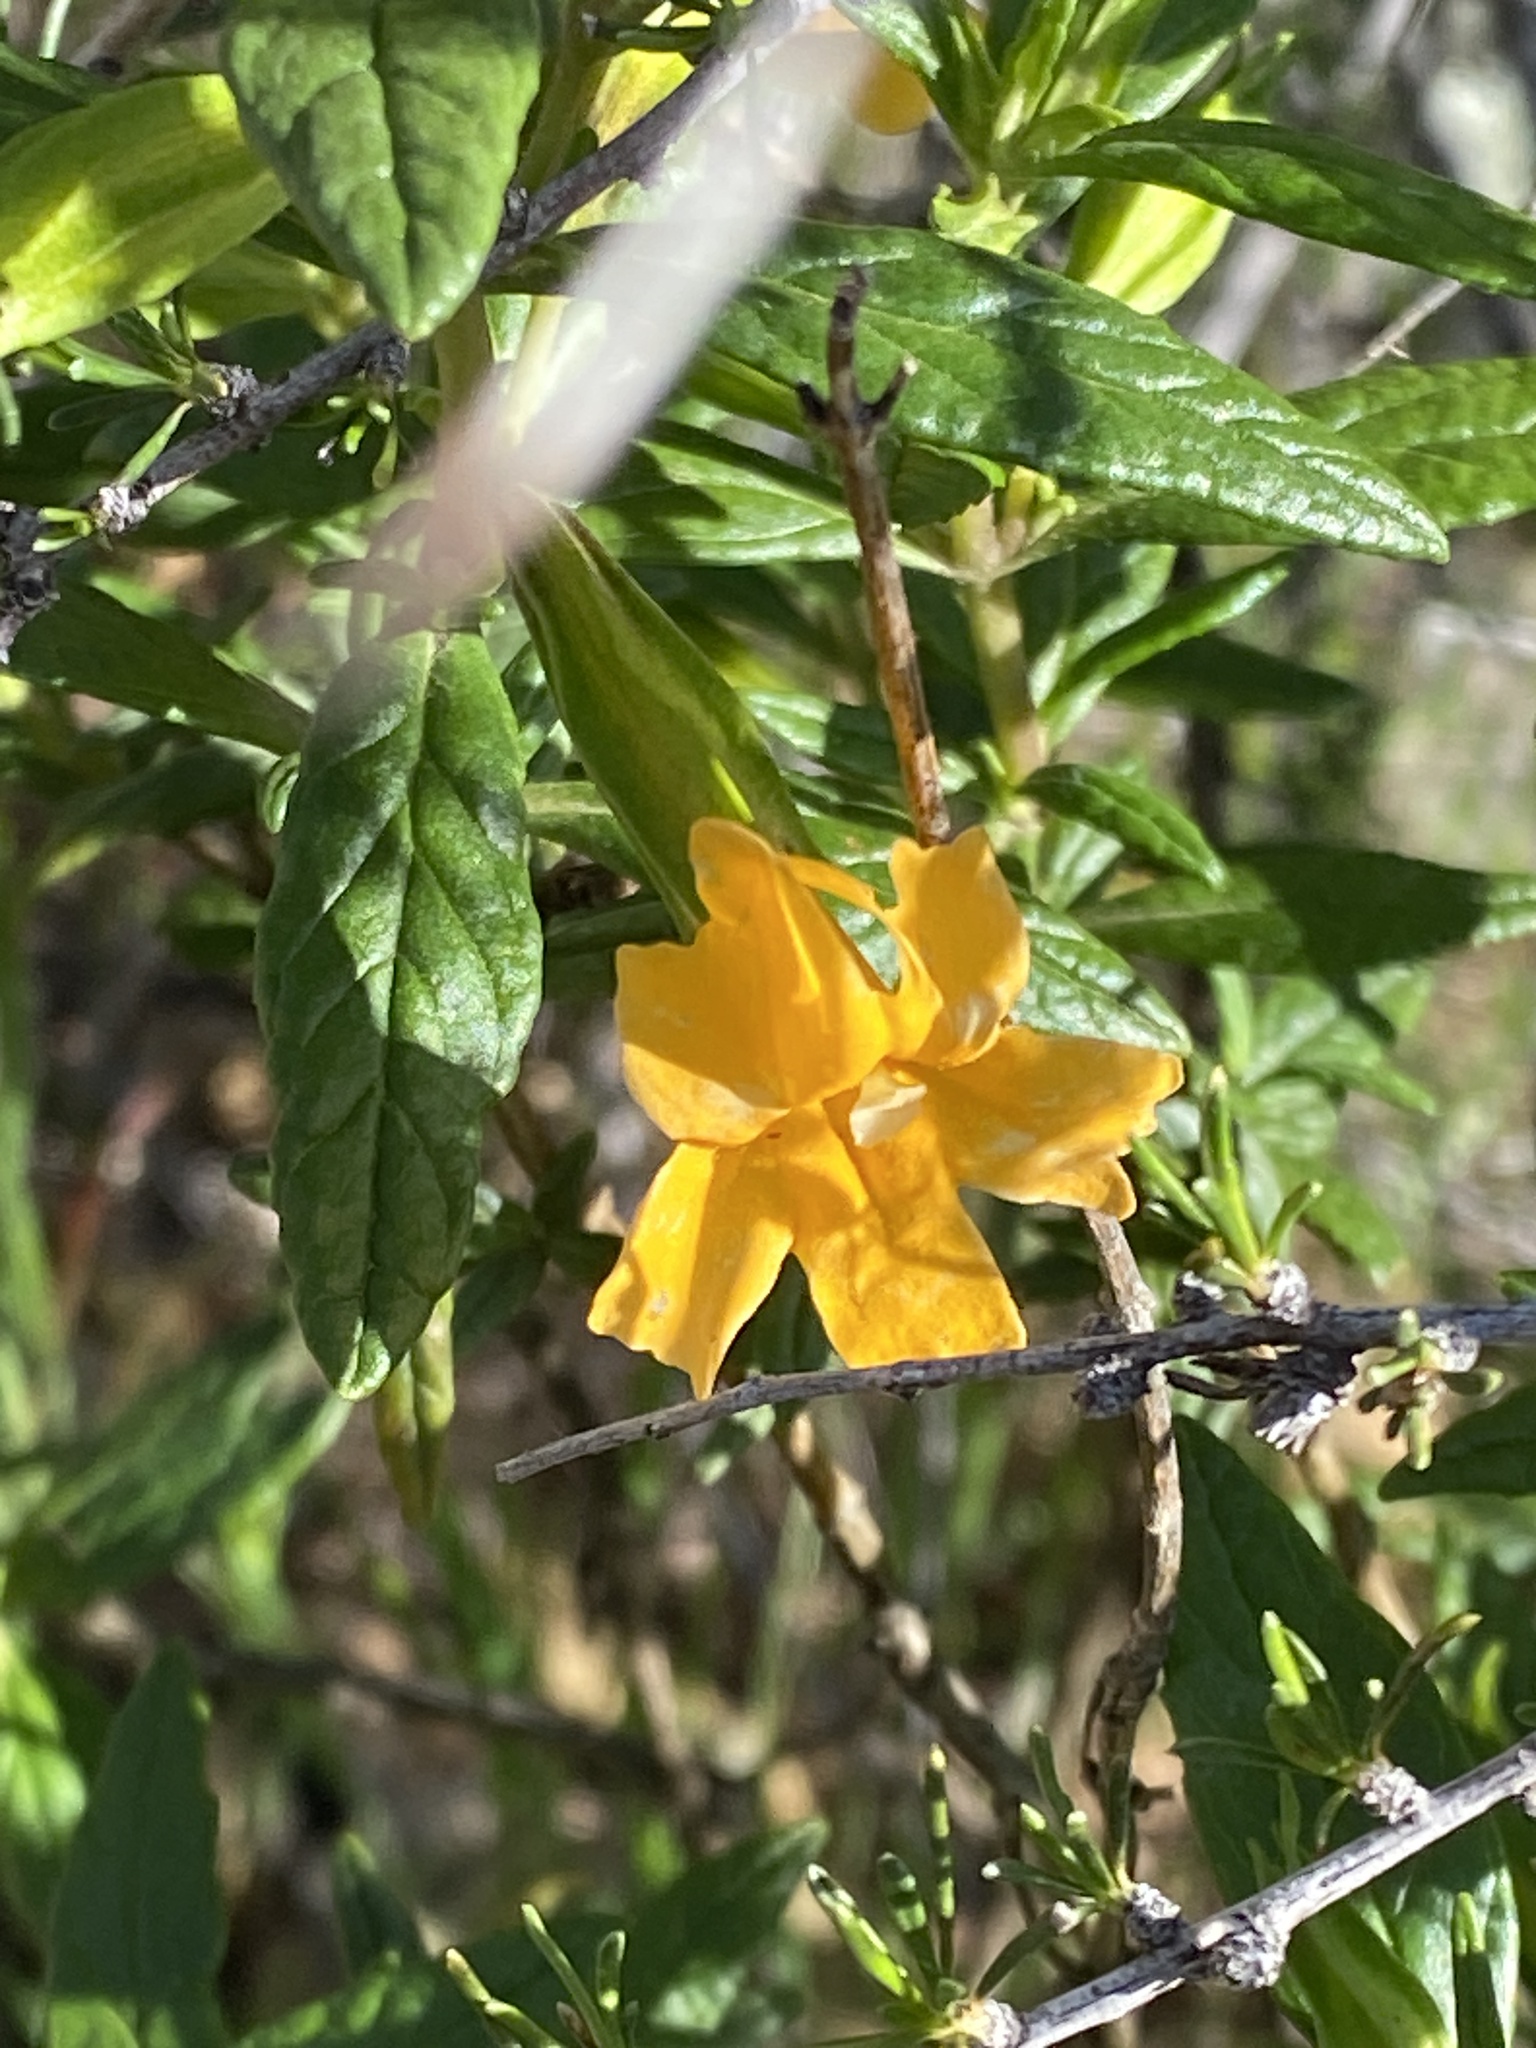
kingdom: Plantae
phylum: Tracheophyta
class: Magnoliopsida
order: Lamiales
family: Phrymaceae
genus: Diplacus
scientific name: Diplacus aurantiacus
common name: Bush monkey-flower
